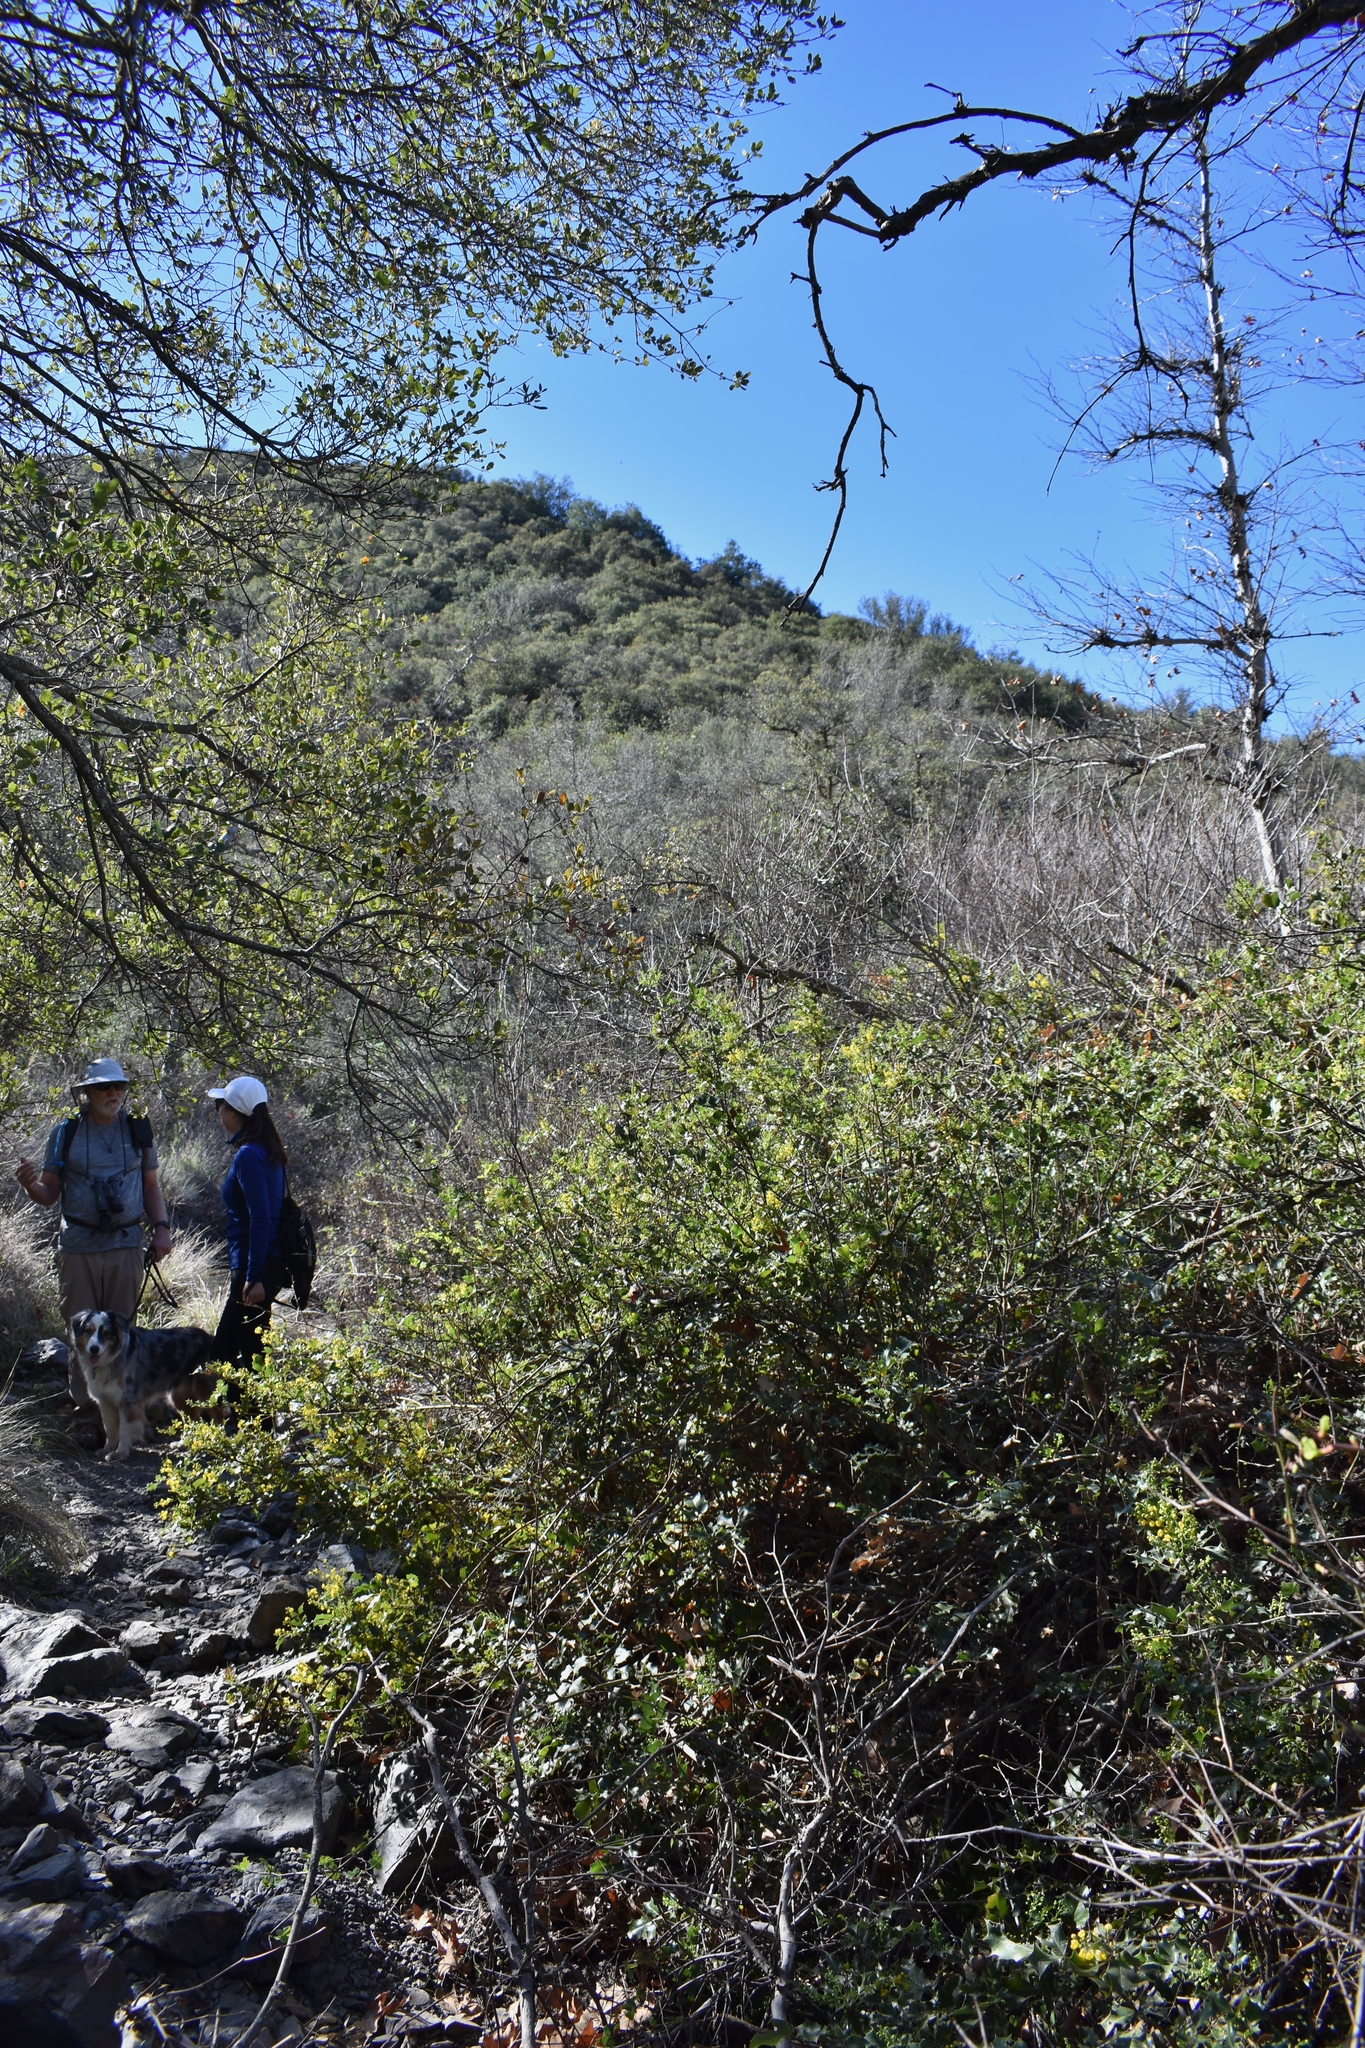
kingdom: Plantae
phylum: Tracheophyta
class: Magnoliopsida
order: Ranunculales
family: Berberidaceae
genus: Mahonia
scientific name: Mahonia
